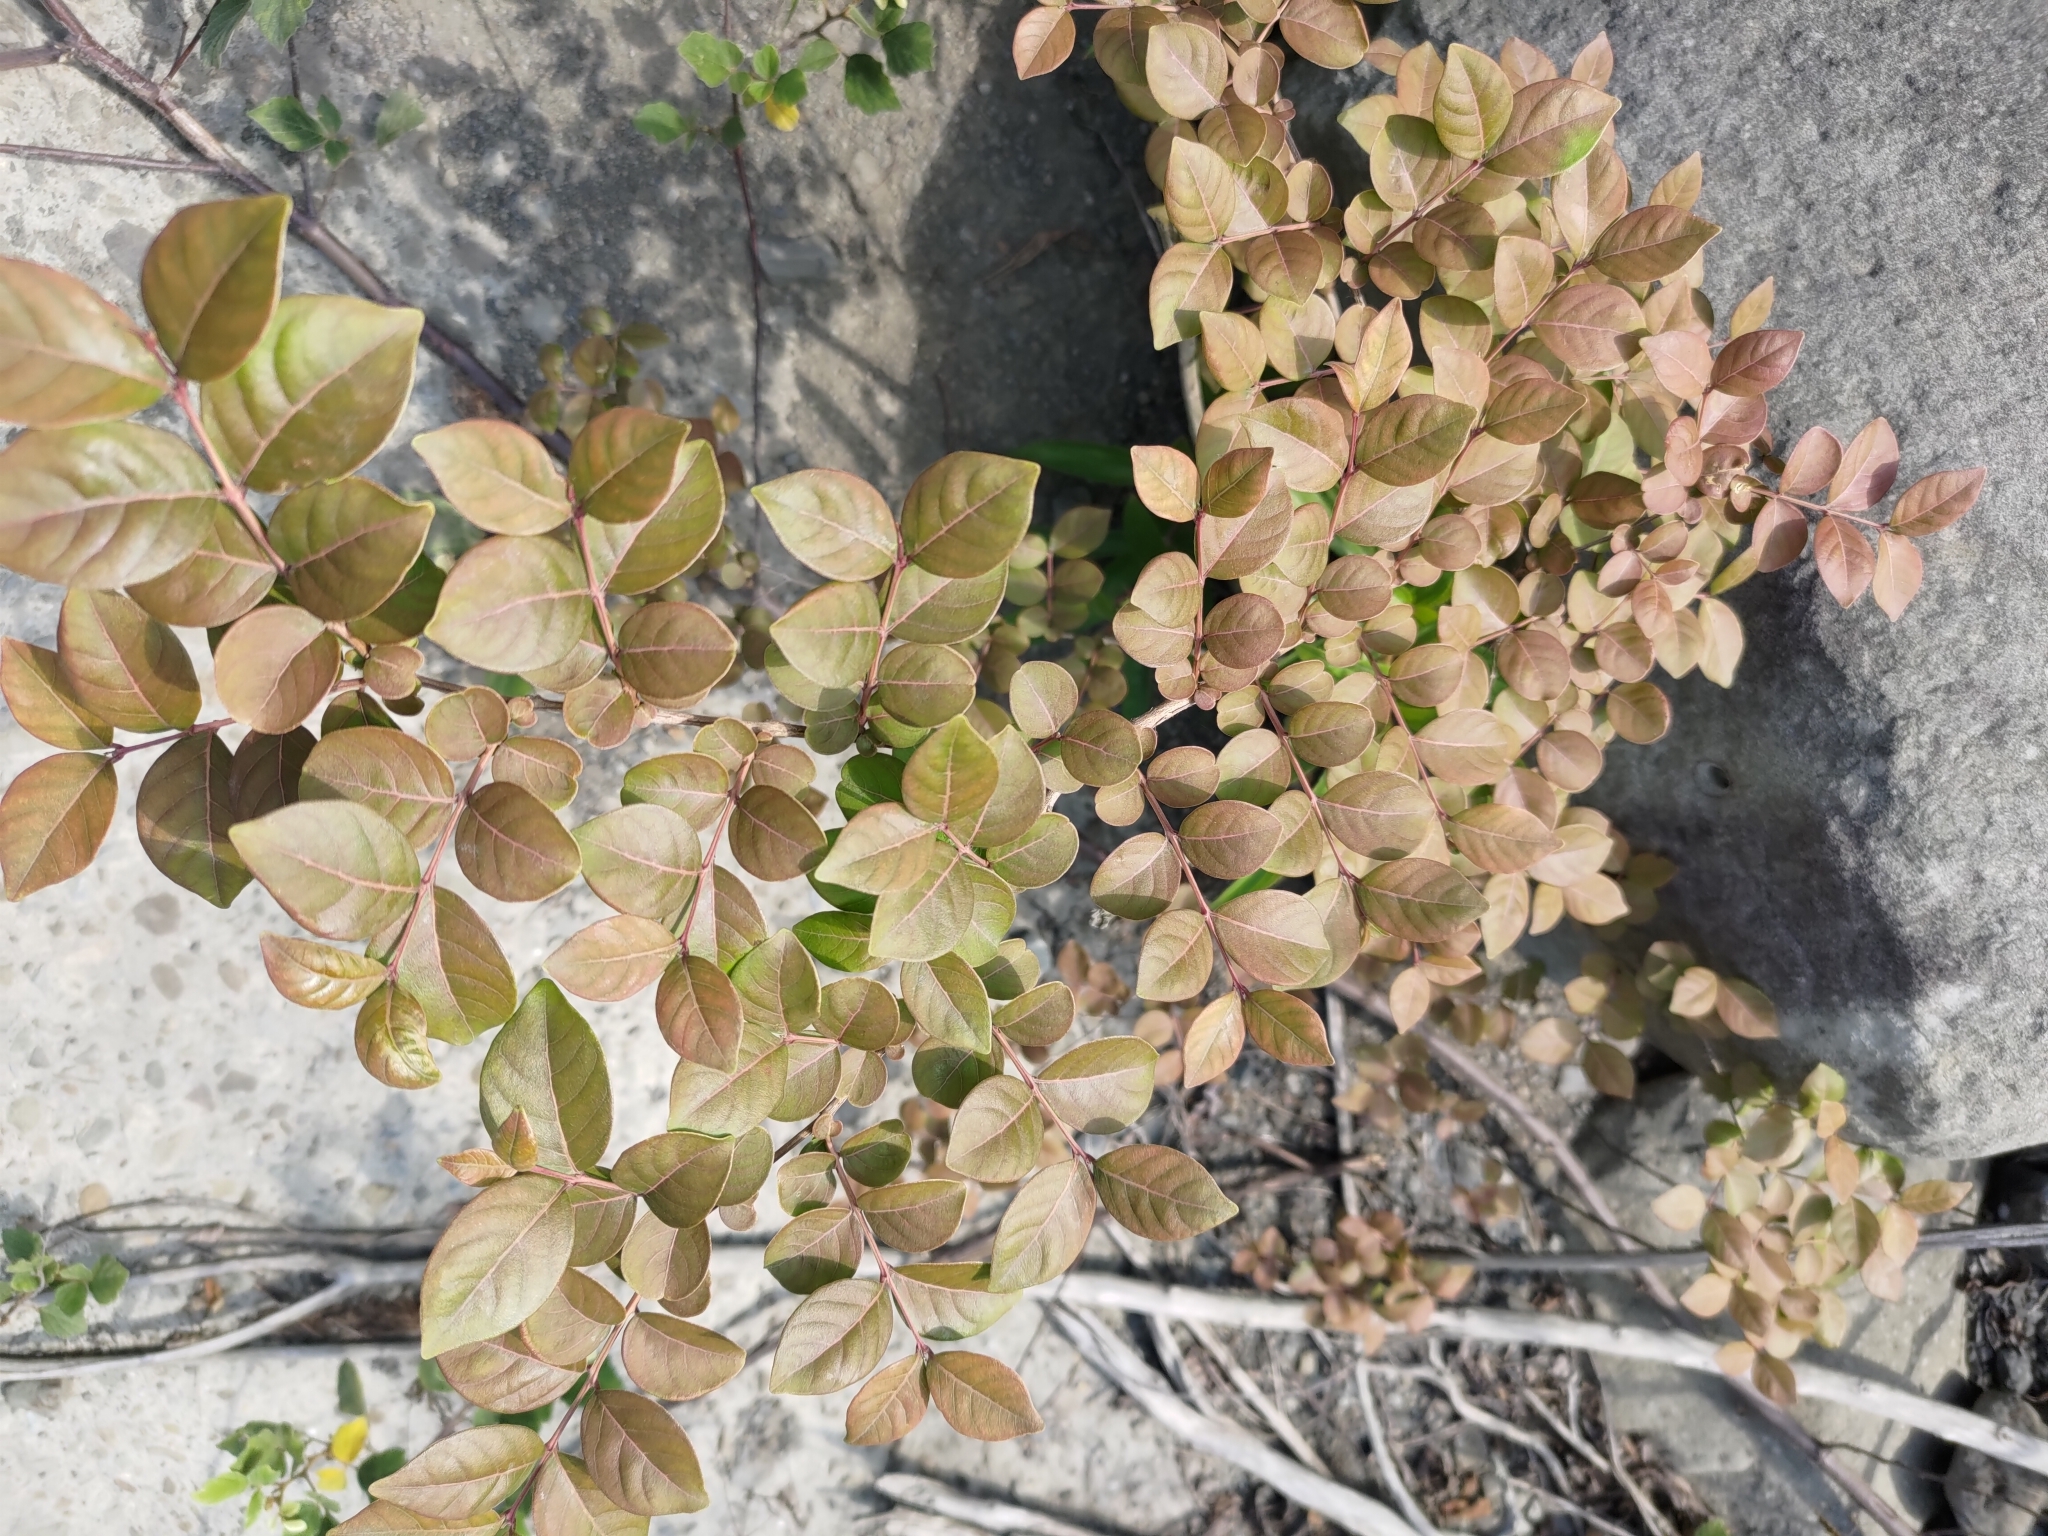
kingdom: Plantae
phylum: Tracheophyta
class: Magnoliopsida
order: Myrtales
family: Lythraceae
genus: Lagerstroemia
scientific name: Lagerstroemia subcostata
